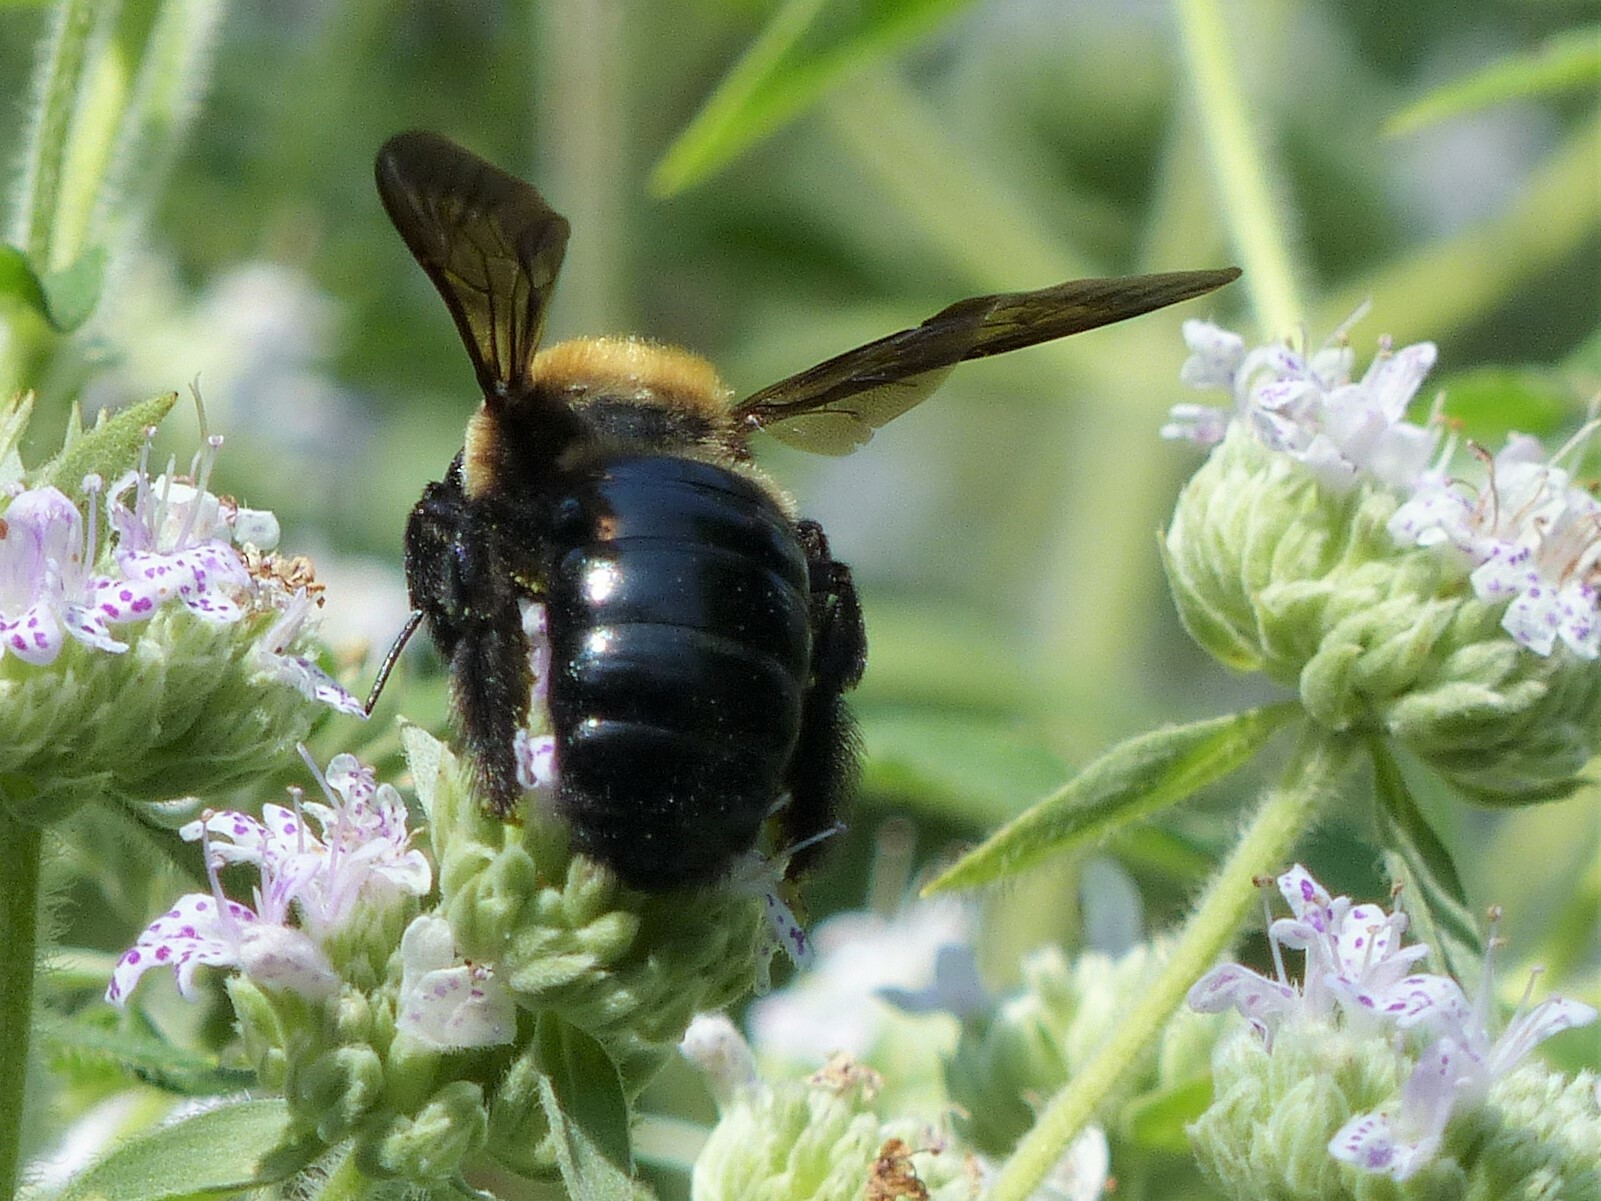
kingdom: Animalia
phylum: Arthropoda
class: Insecta
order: Hymenoptera
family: Apidae
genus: Xylocopa
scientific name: Xylocopa virginica
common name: Carpenter bee
